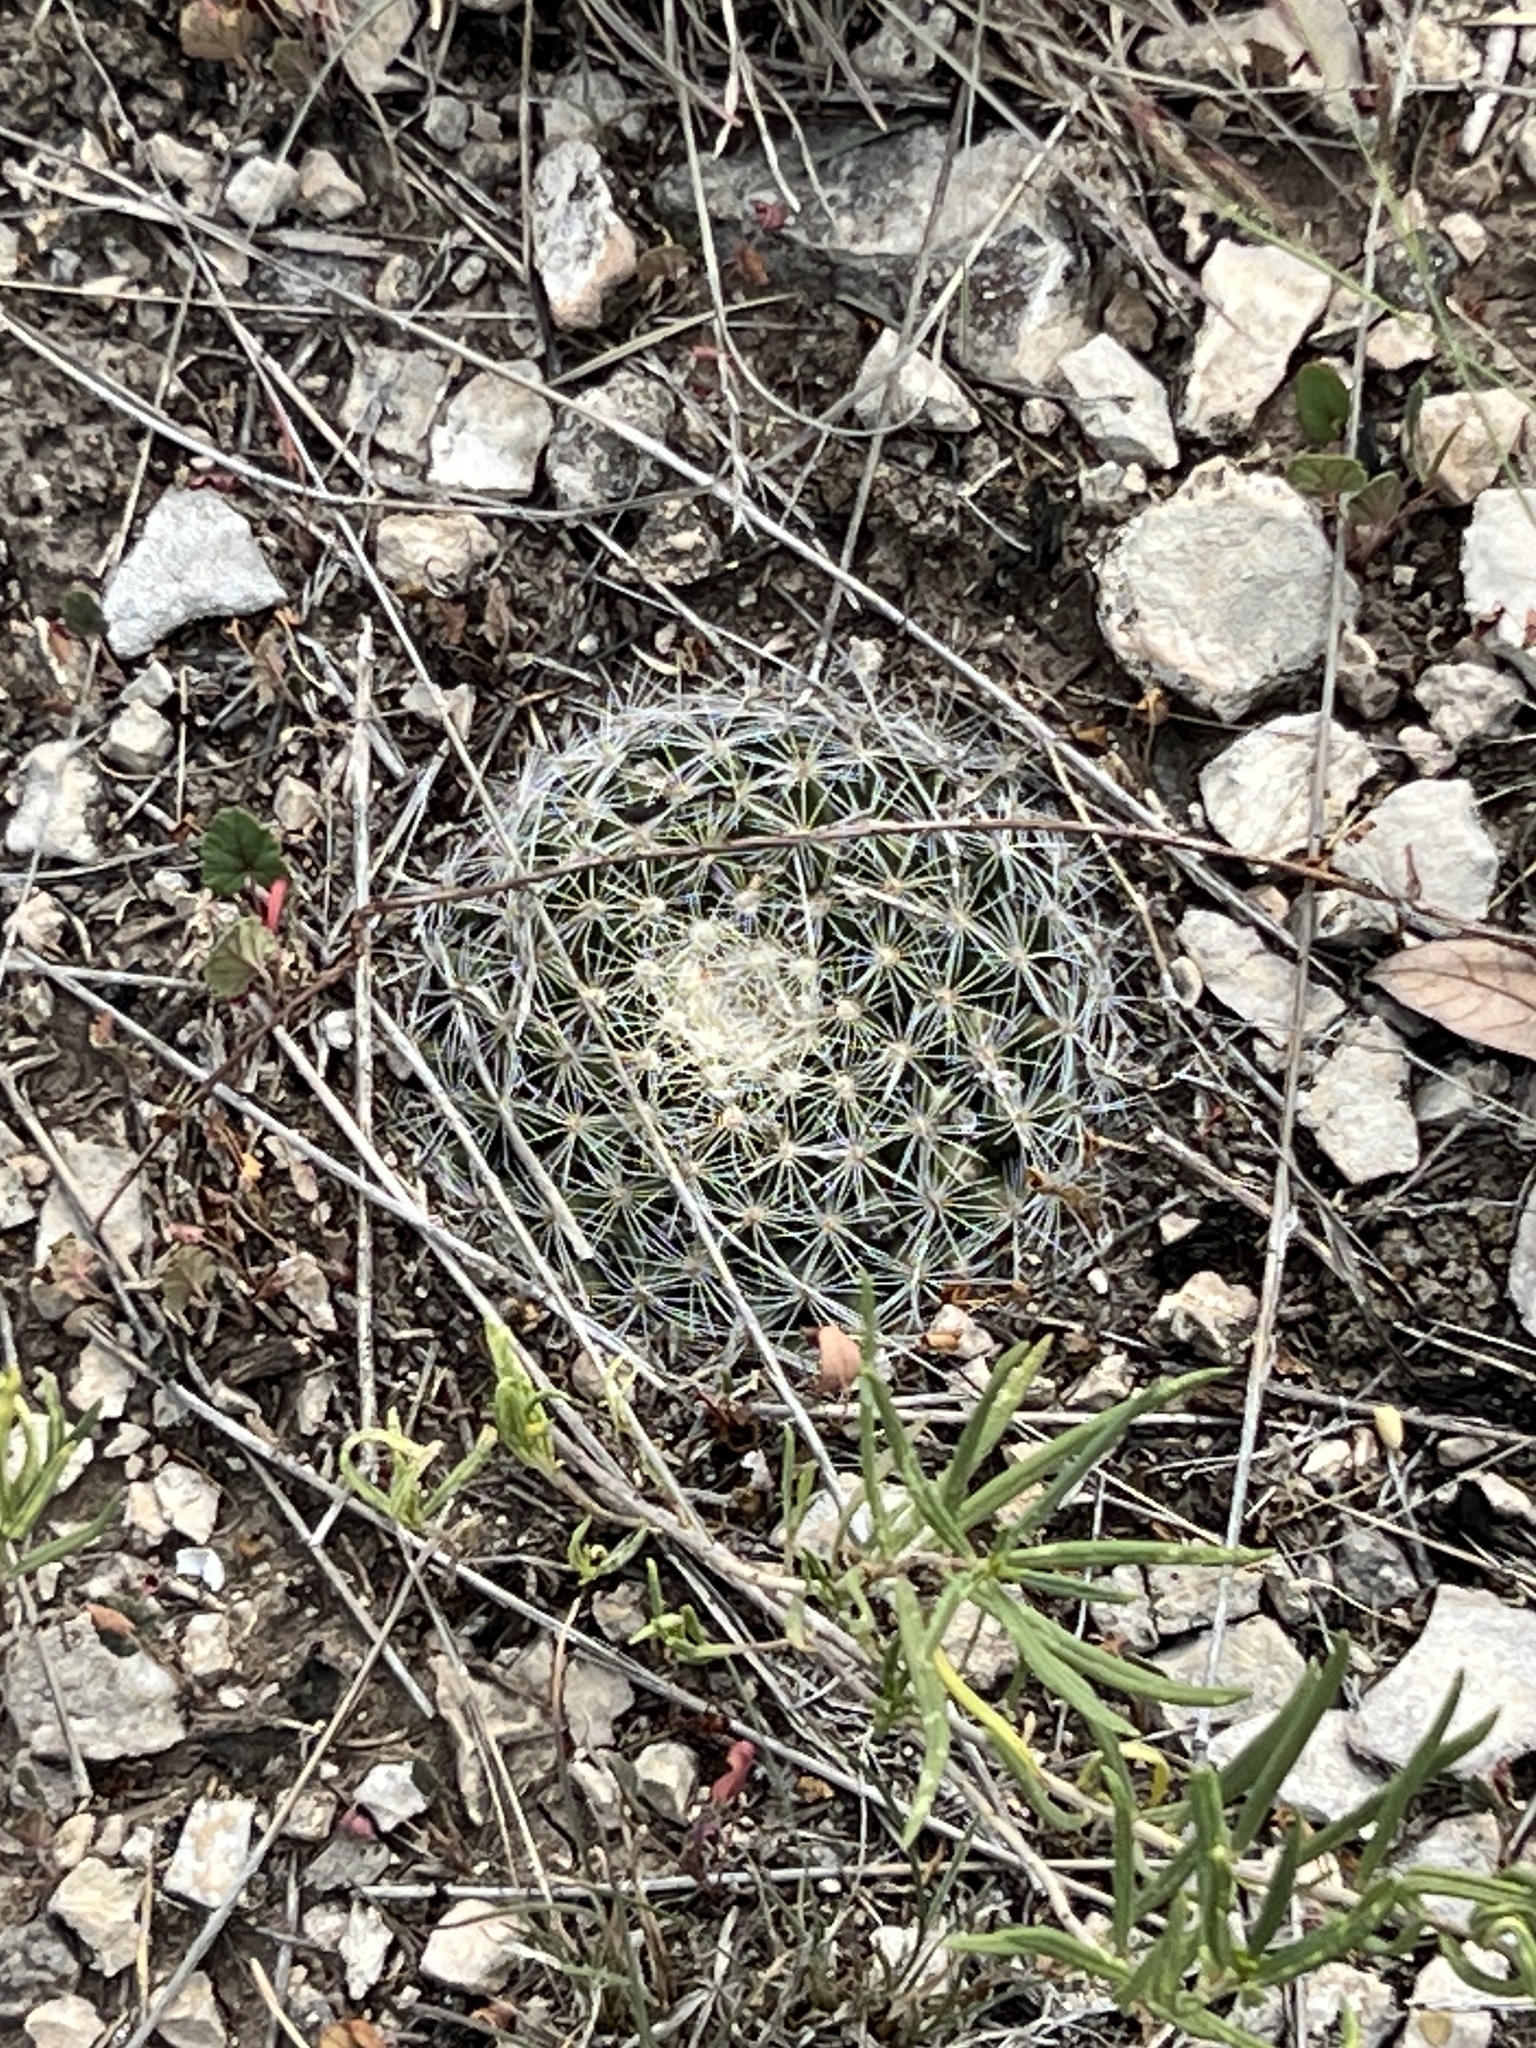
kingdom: Plantae
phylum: Tracheophyta
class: Magnoliopsida
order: Caryophyllales
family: Cactaceae
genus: Mammillaria
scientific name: Mammillaria heyderi
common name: Little nipple cactus
